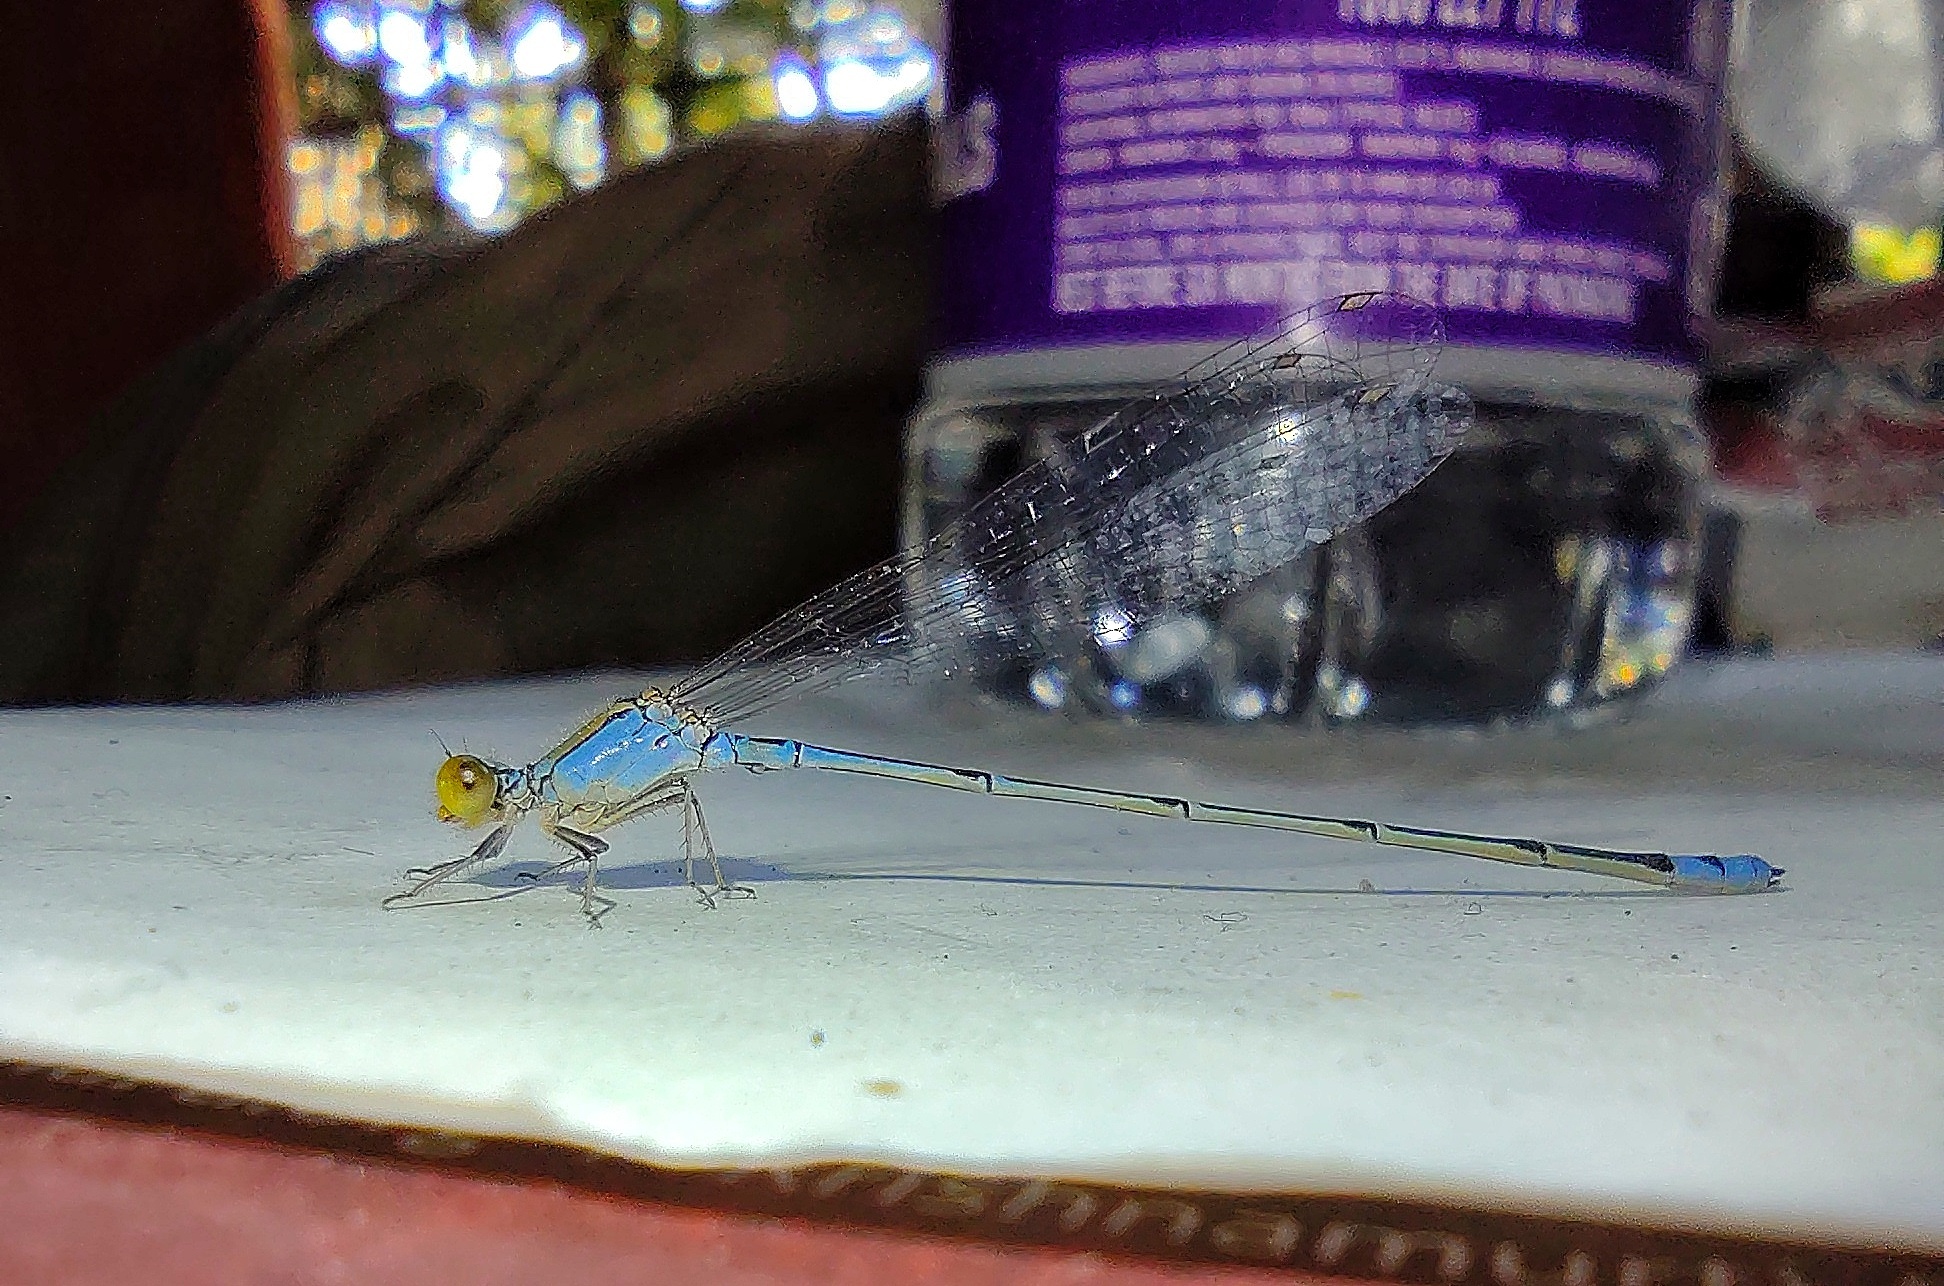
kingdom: Animalia
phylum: Arthropoda
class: Insecta
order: Odonata
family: Coenagrionidae
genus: Pseudagrion
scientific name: Pseudagrion rubriceps
